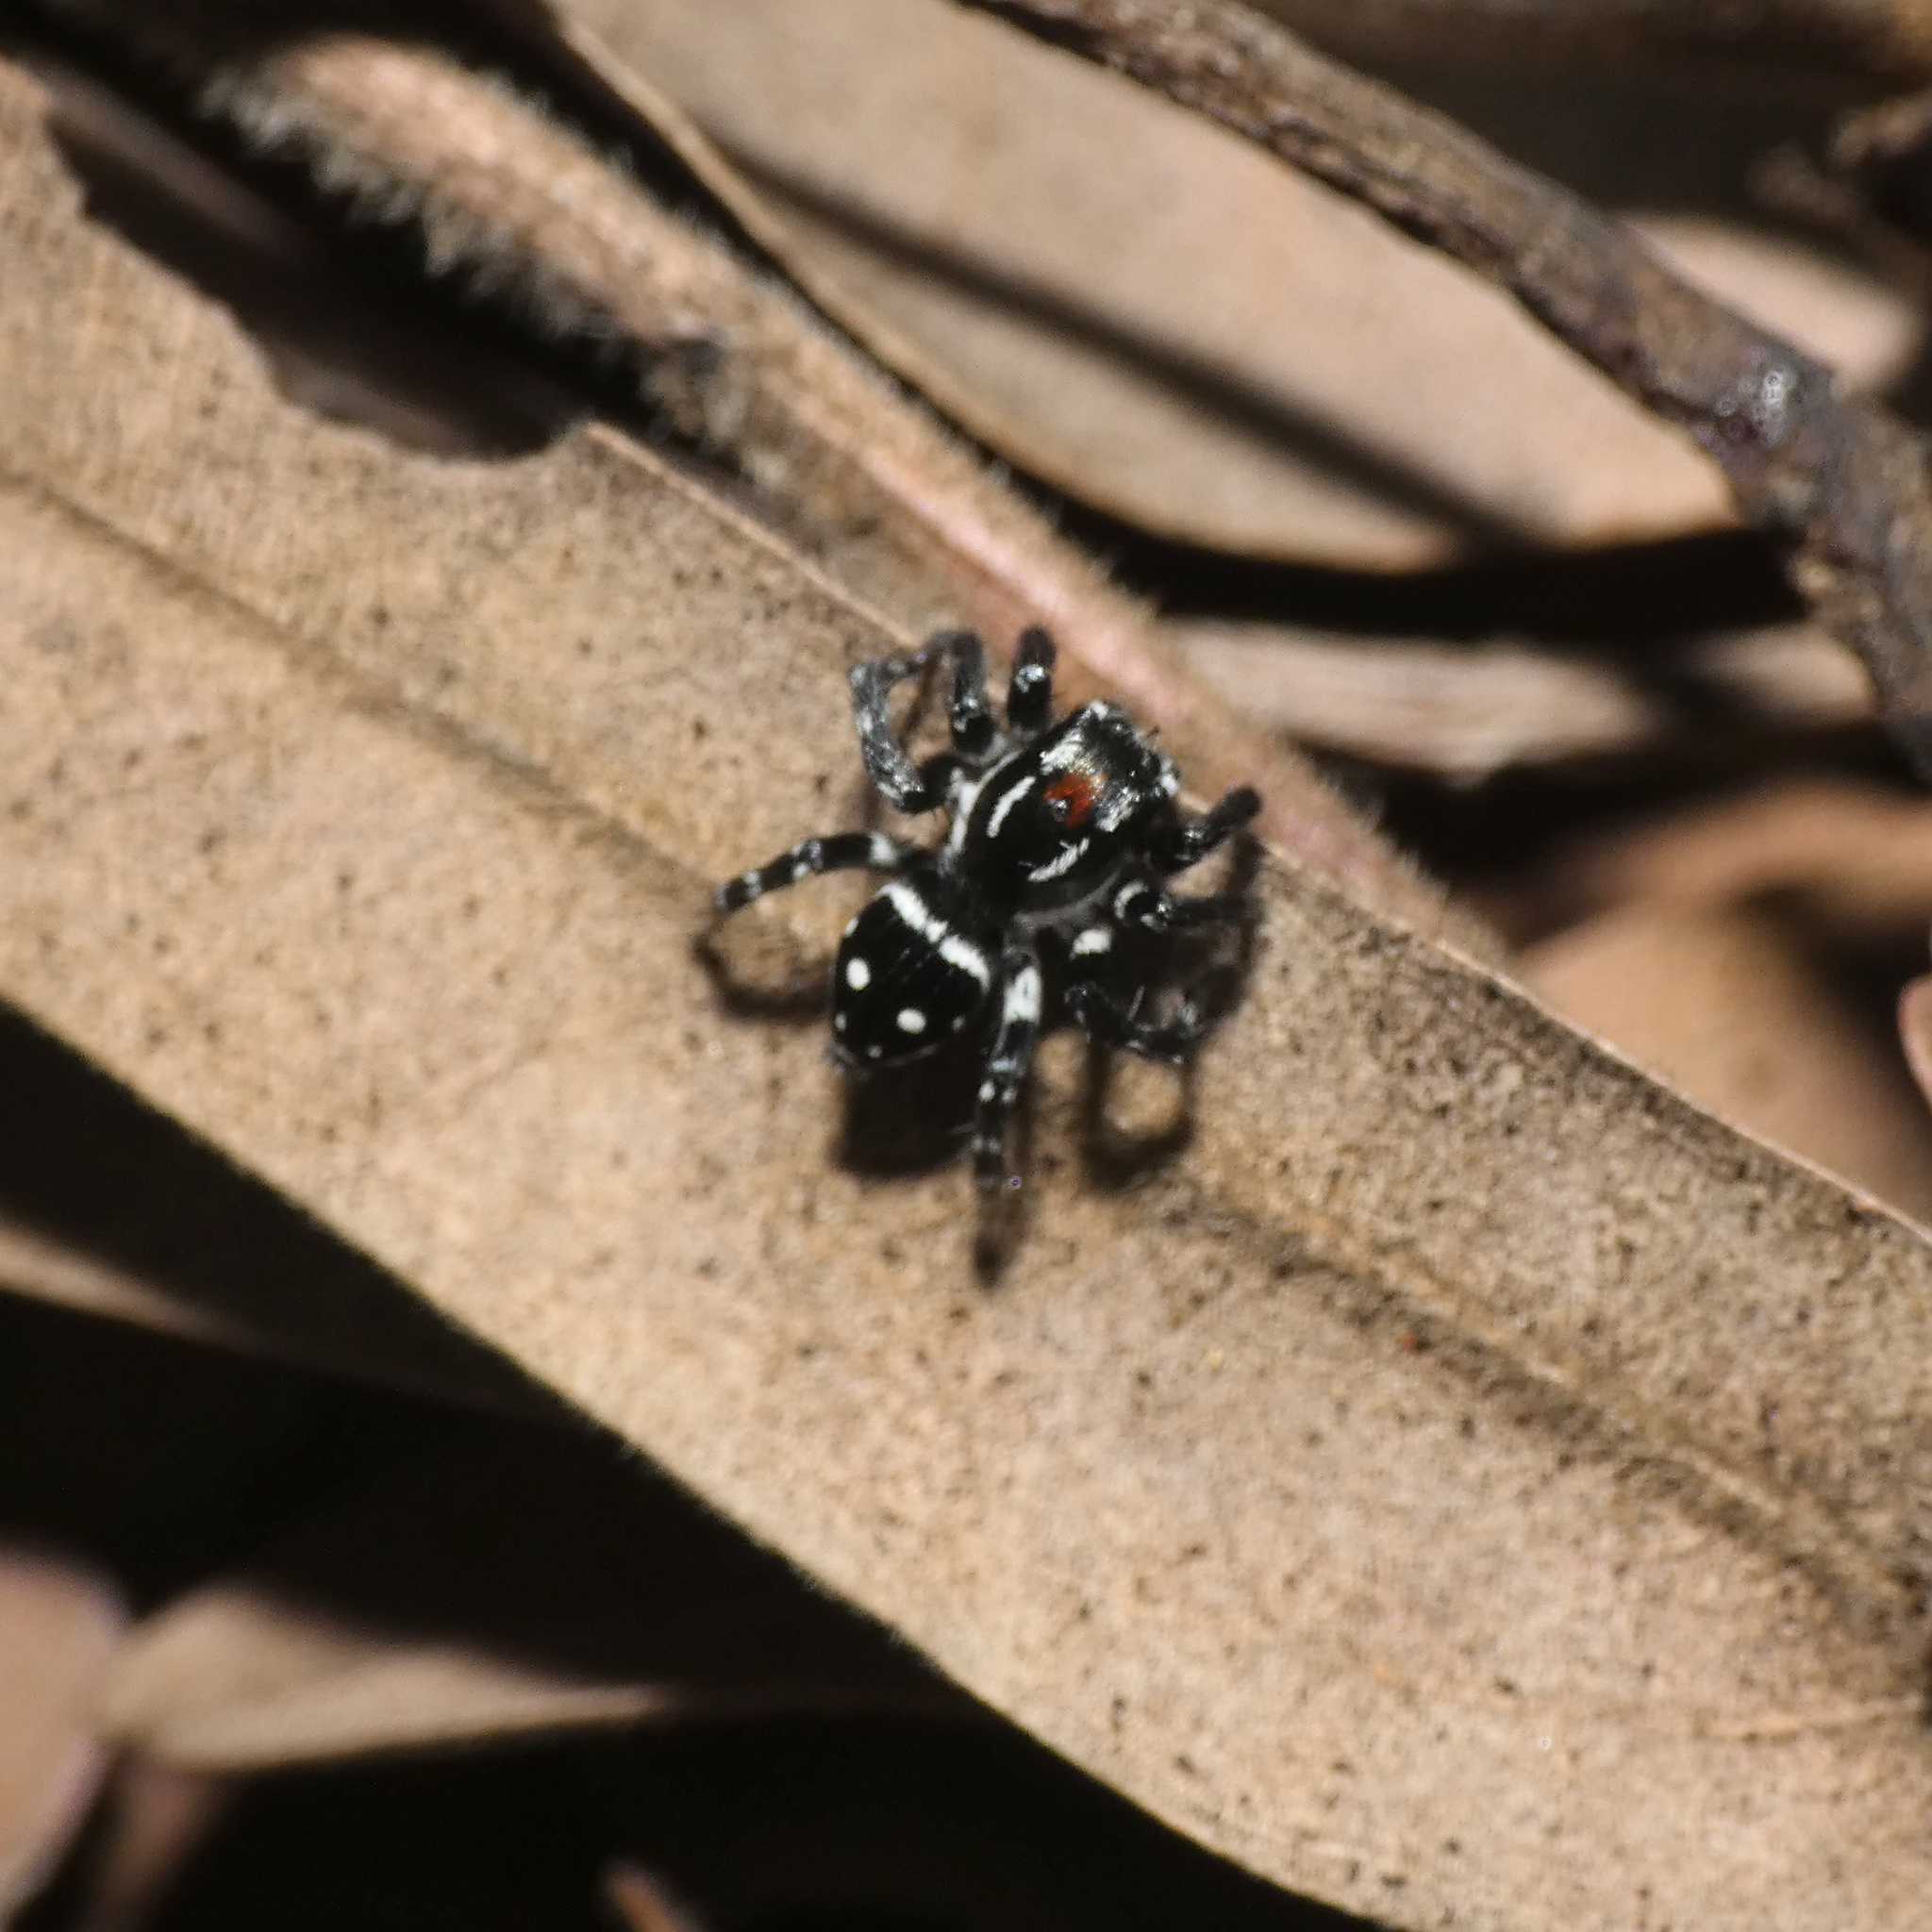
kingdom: Animalia
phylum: Arthropoda
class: Arachnida
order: Araneae
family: Salticidae
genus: Stenaelurillus
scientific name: Stenaelurillus guttatus
